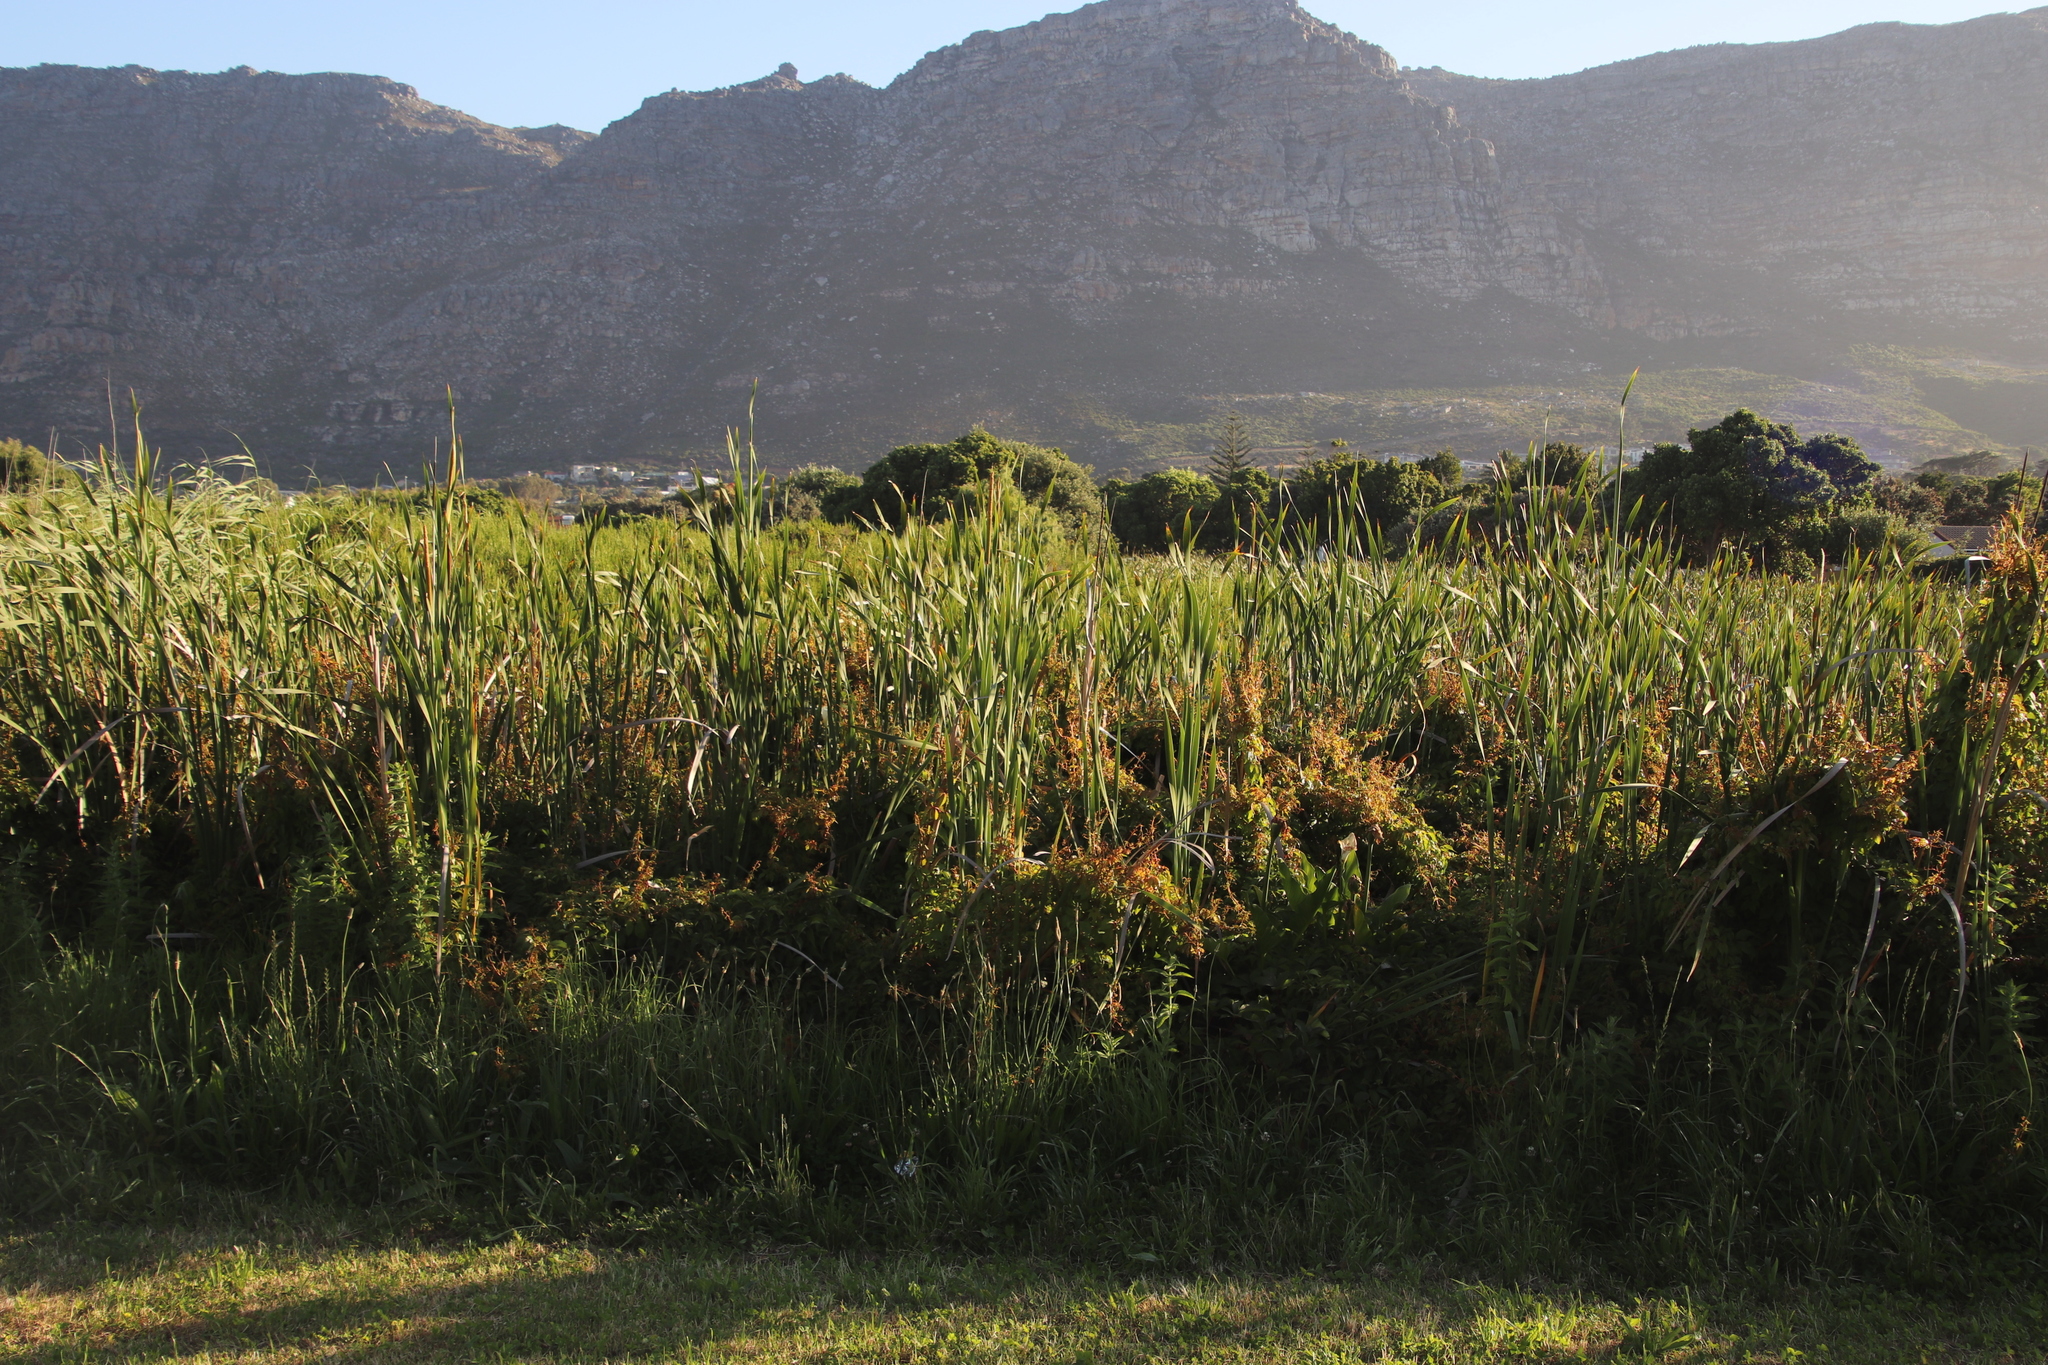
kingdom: Plantae
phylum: Tracheophyta
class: Magnoliopsida
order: Vitales
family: Vitaceae
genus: Parthenocissus
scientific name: Parthenocissus quinquefolia
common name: Virginia-creeper
